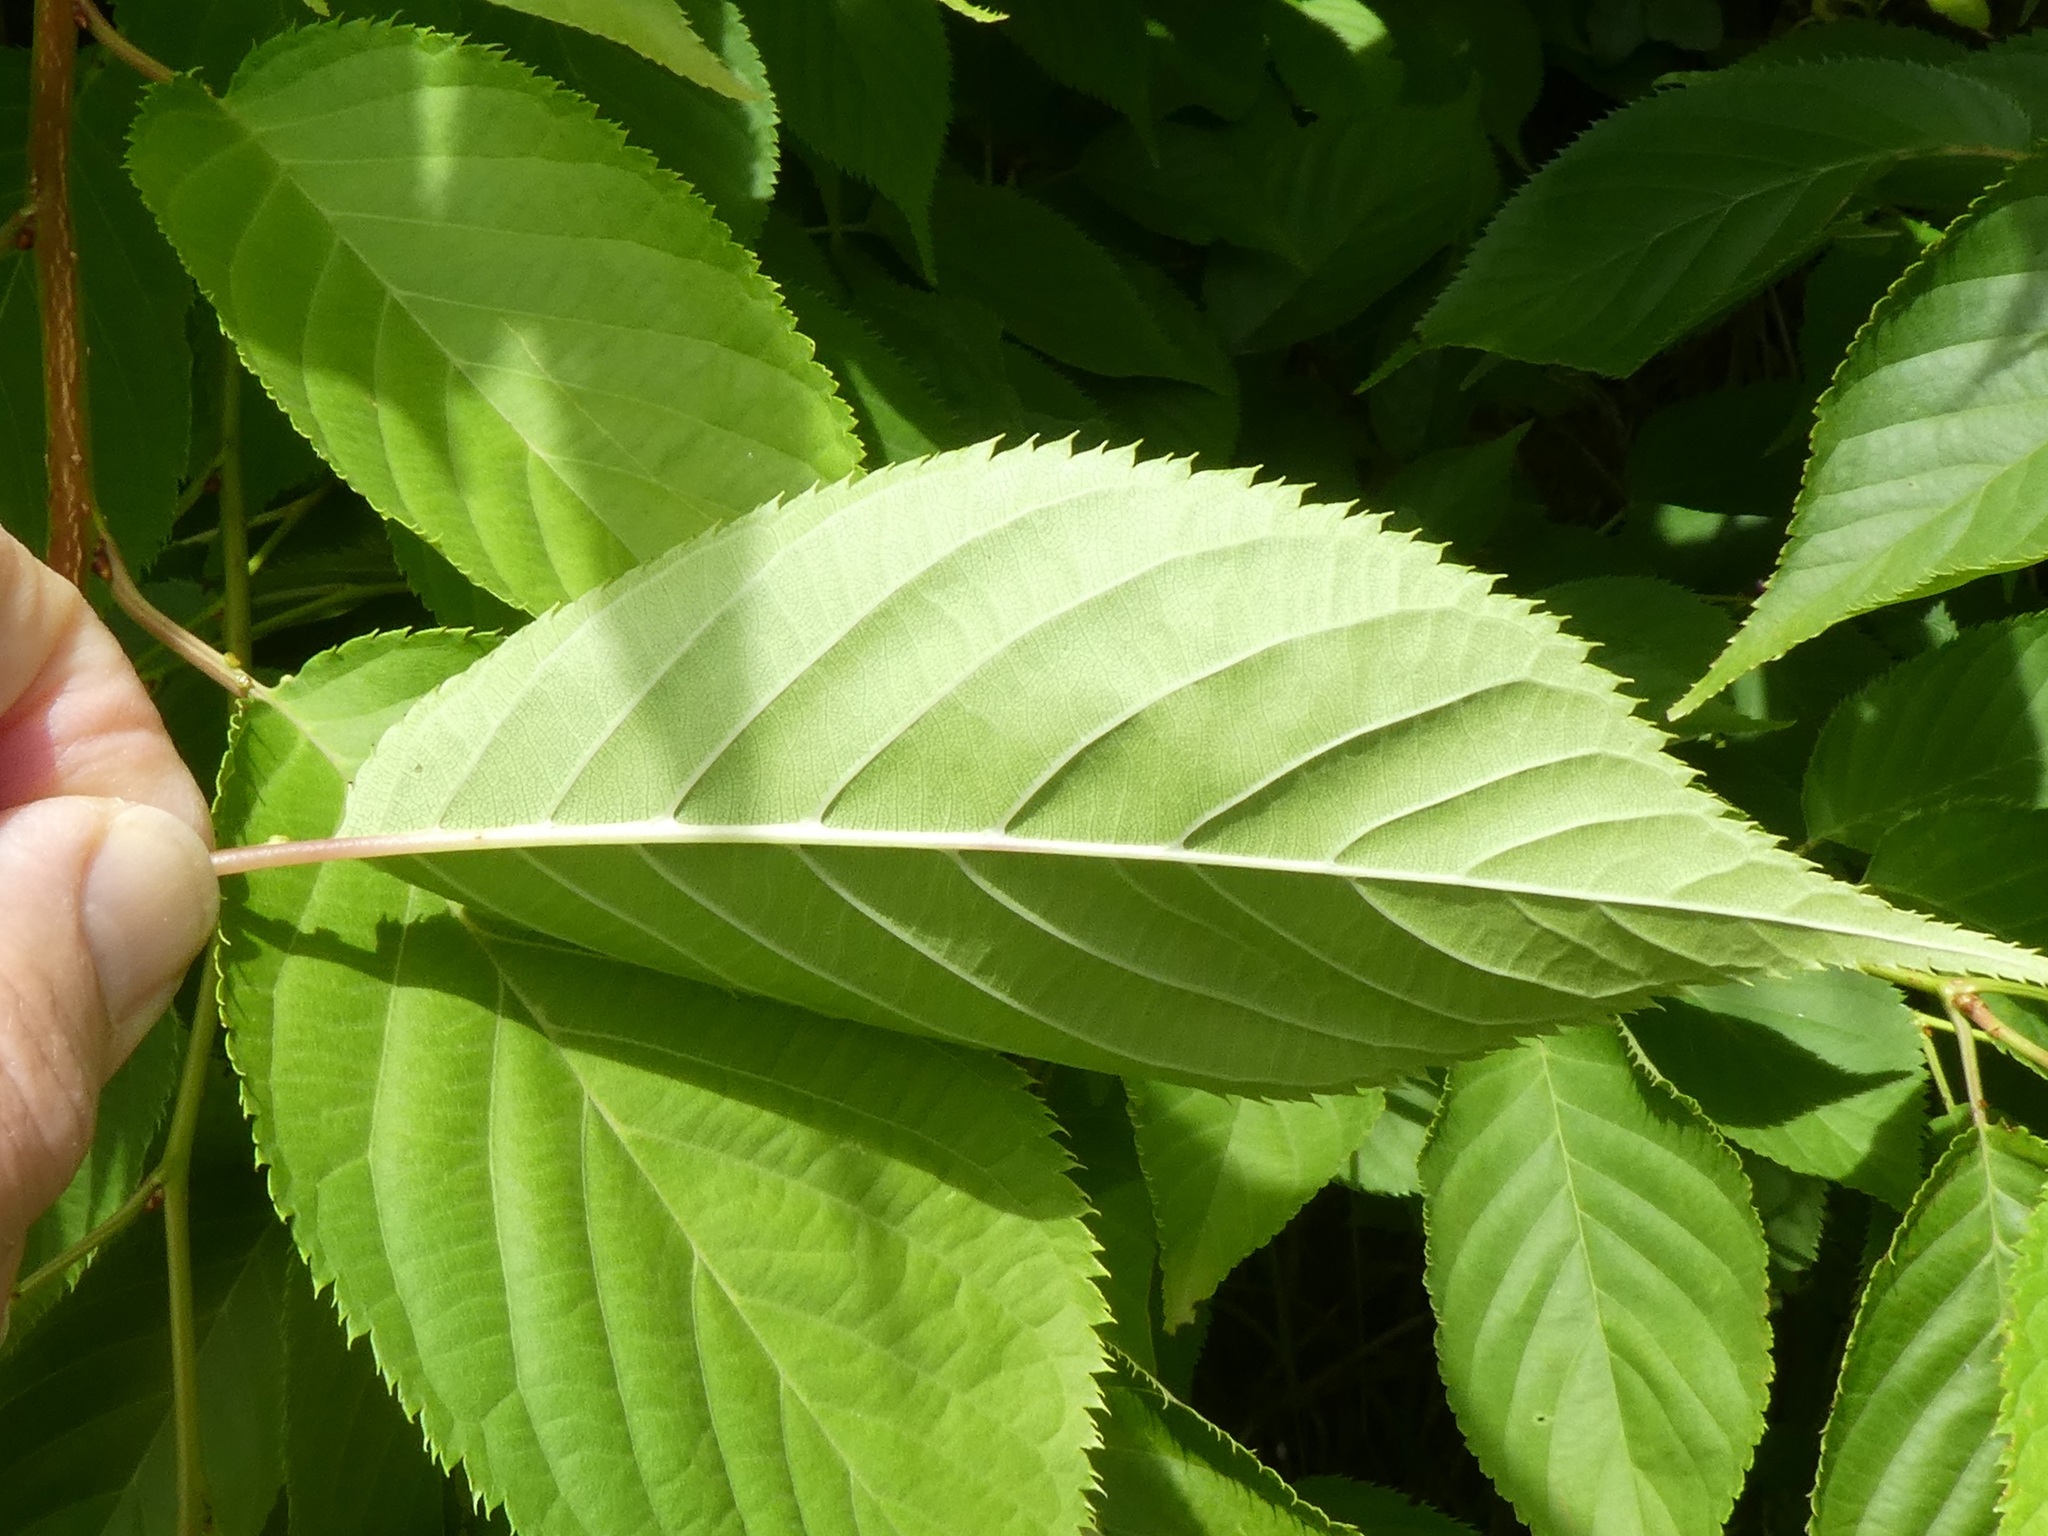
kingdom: Plantae
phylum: Tracheophyta
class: Magnoliopsida
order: Rosales
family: Rosaceae
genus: Prunus
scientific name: Prunus serrulata
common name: Japanese cherry
